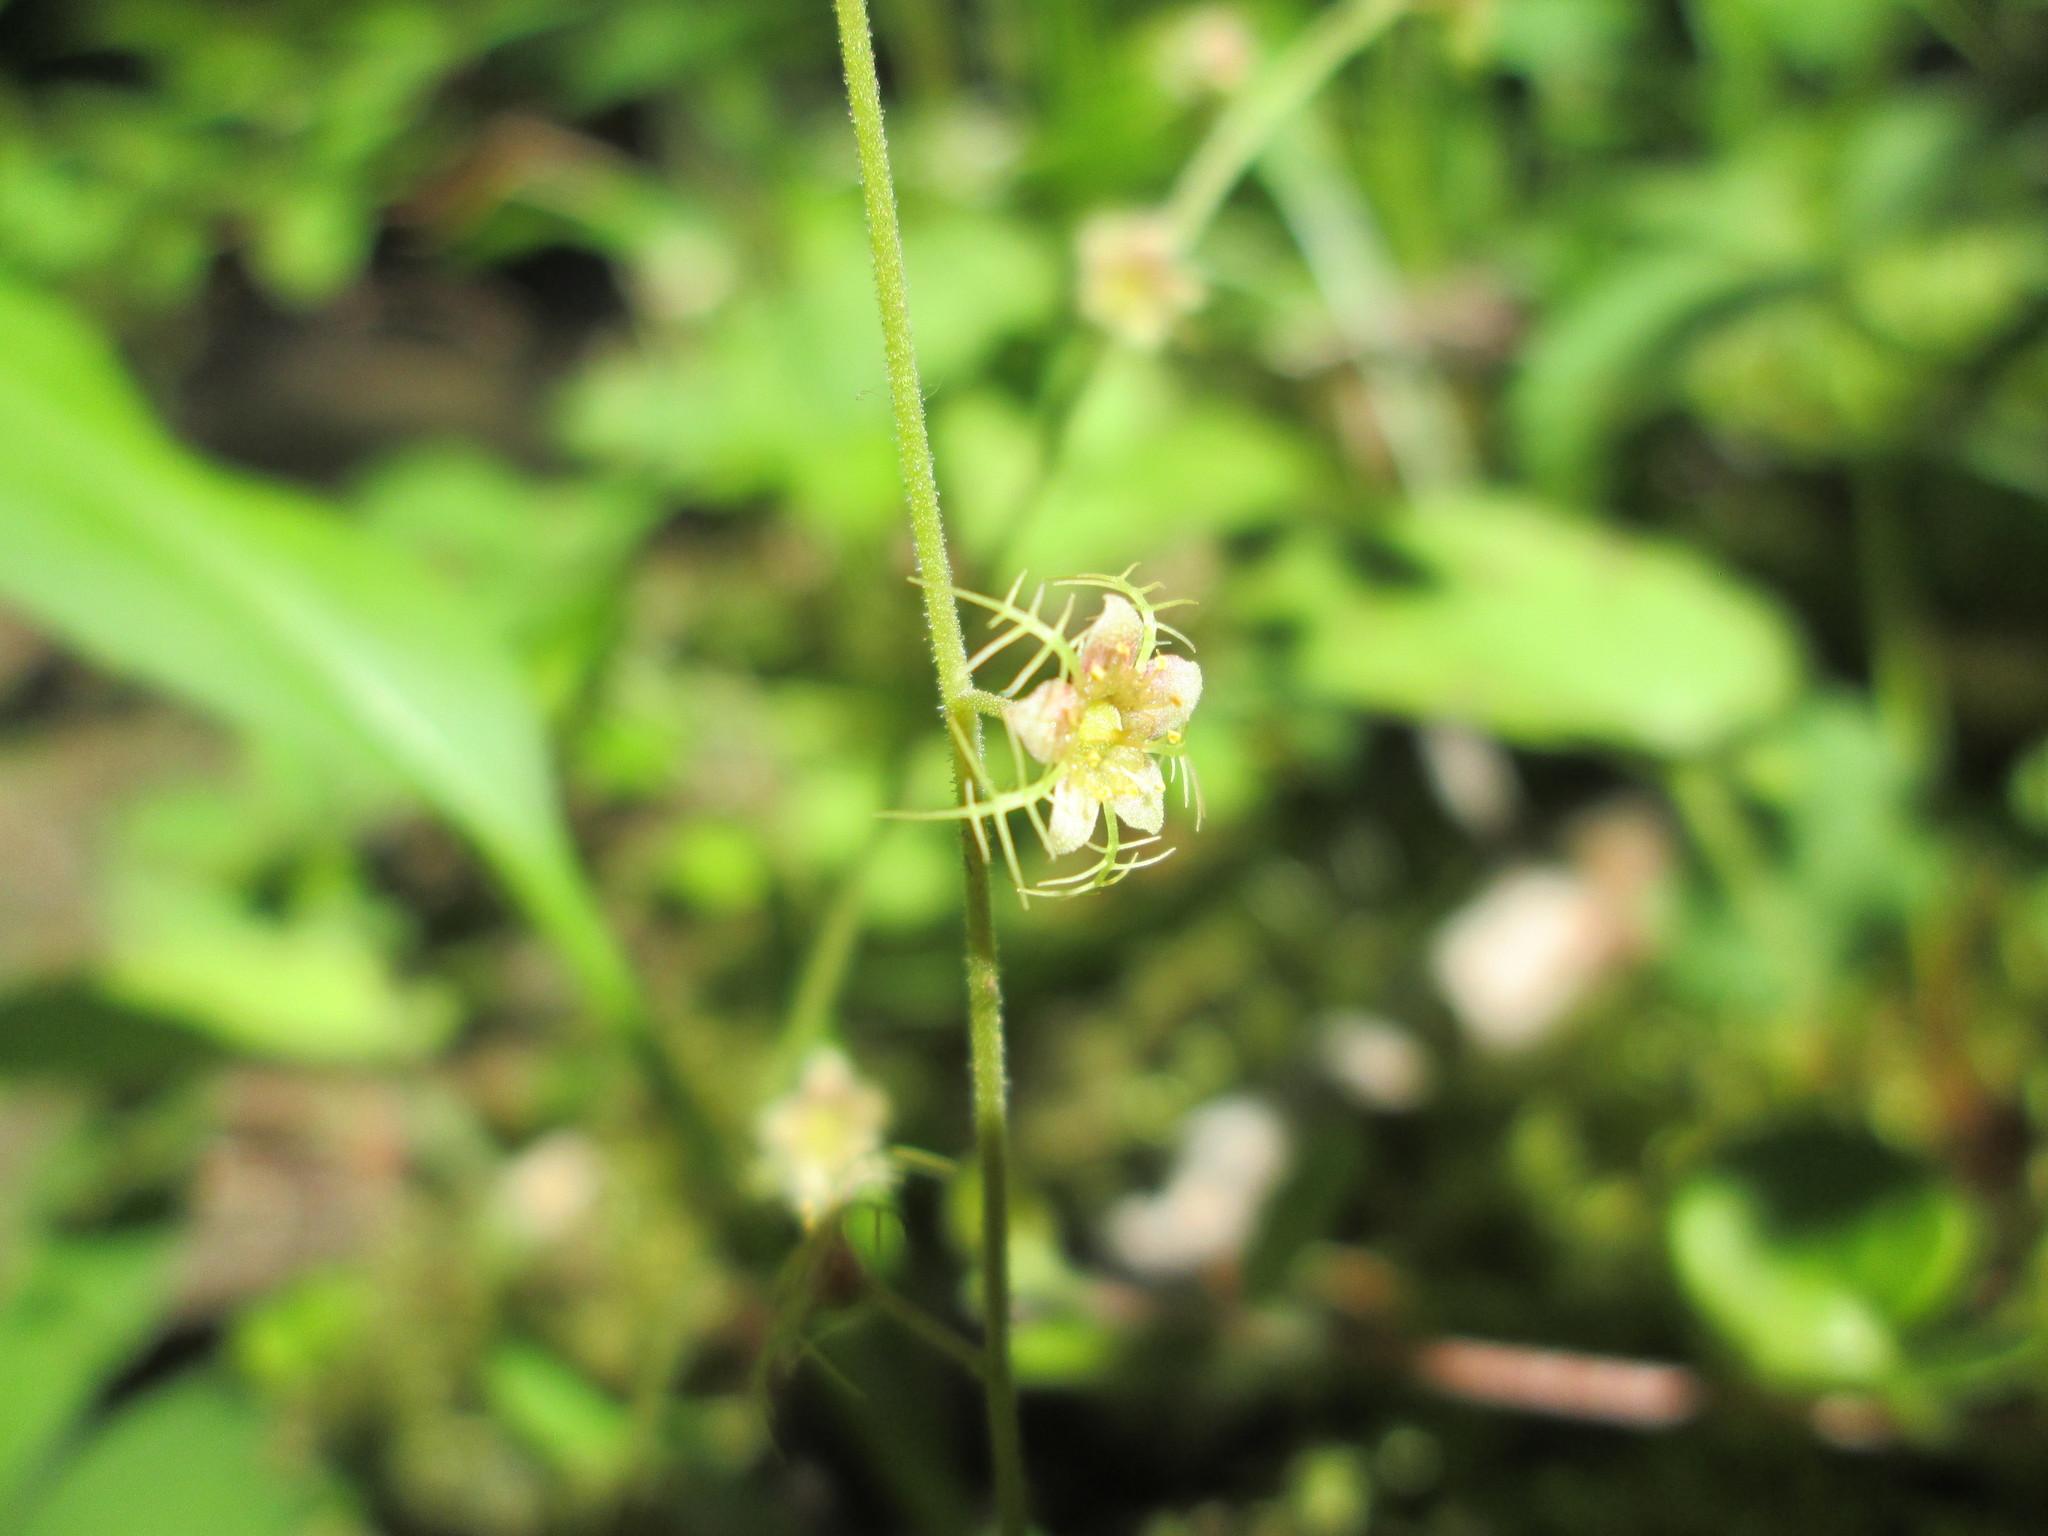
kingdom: Plantae
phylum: Tracheophyta
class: Magnoliopsida
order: Saxifragales
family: Saxifragaceae
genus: Mitella
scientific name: Mitella nuda
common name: Bare-stemmed bishop's-cap
